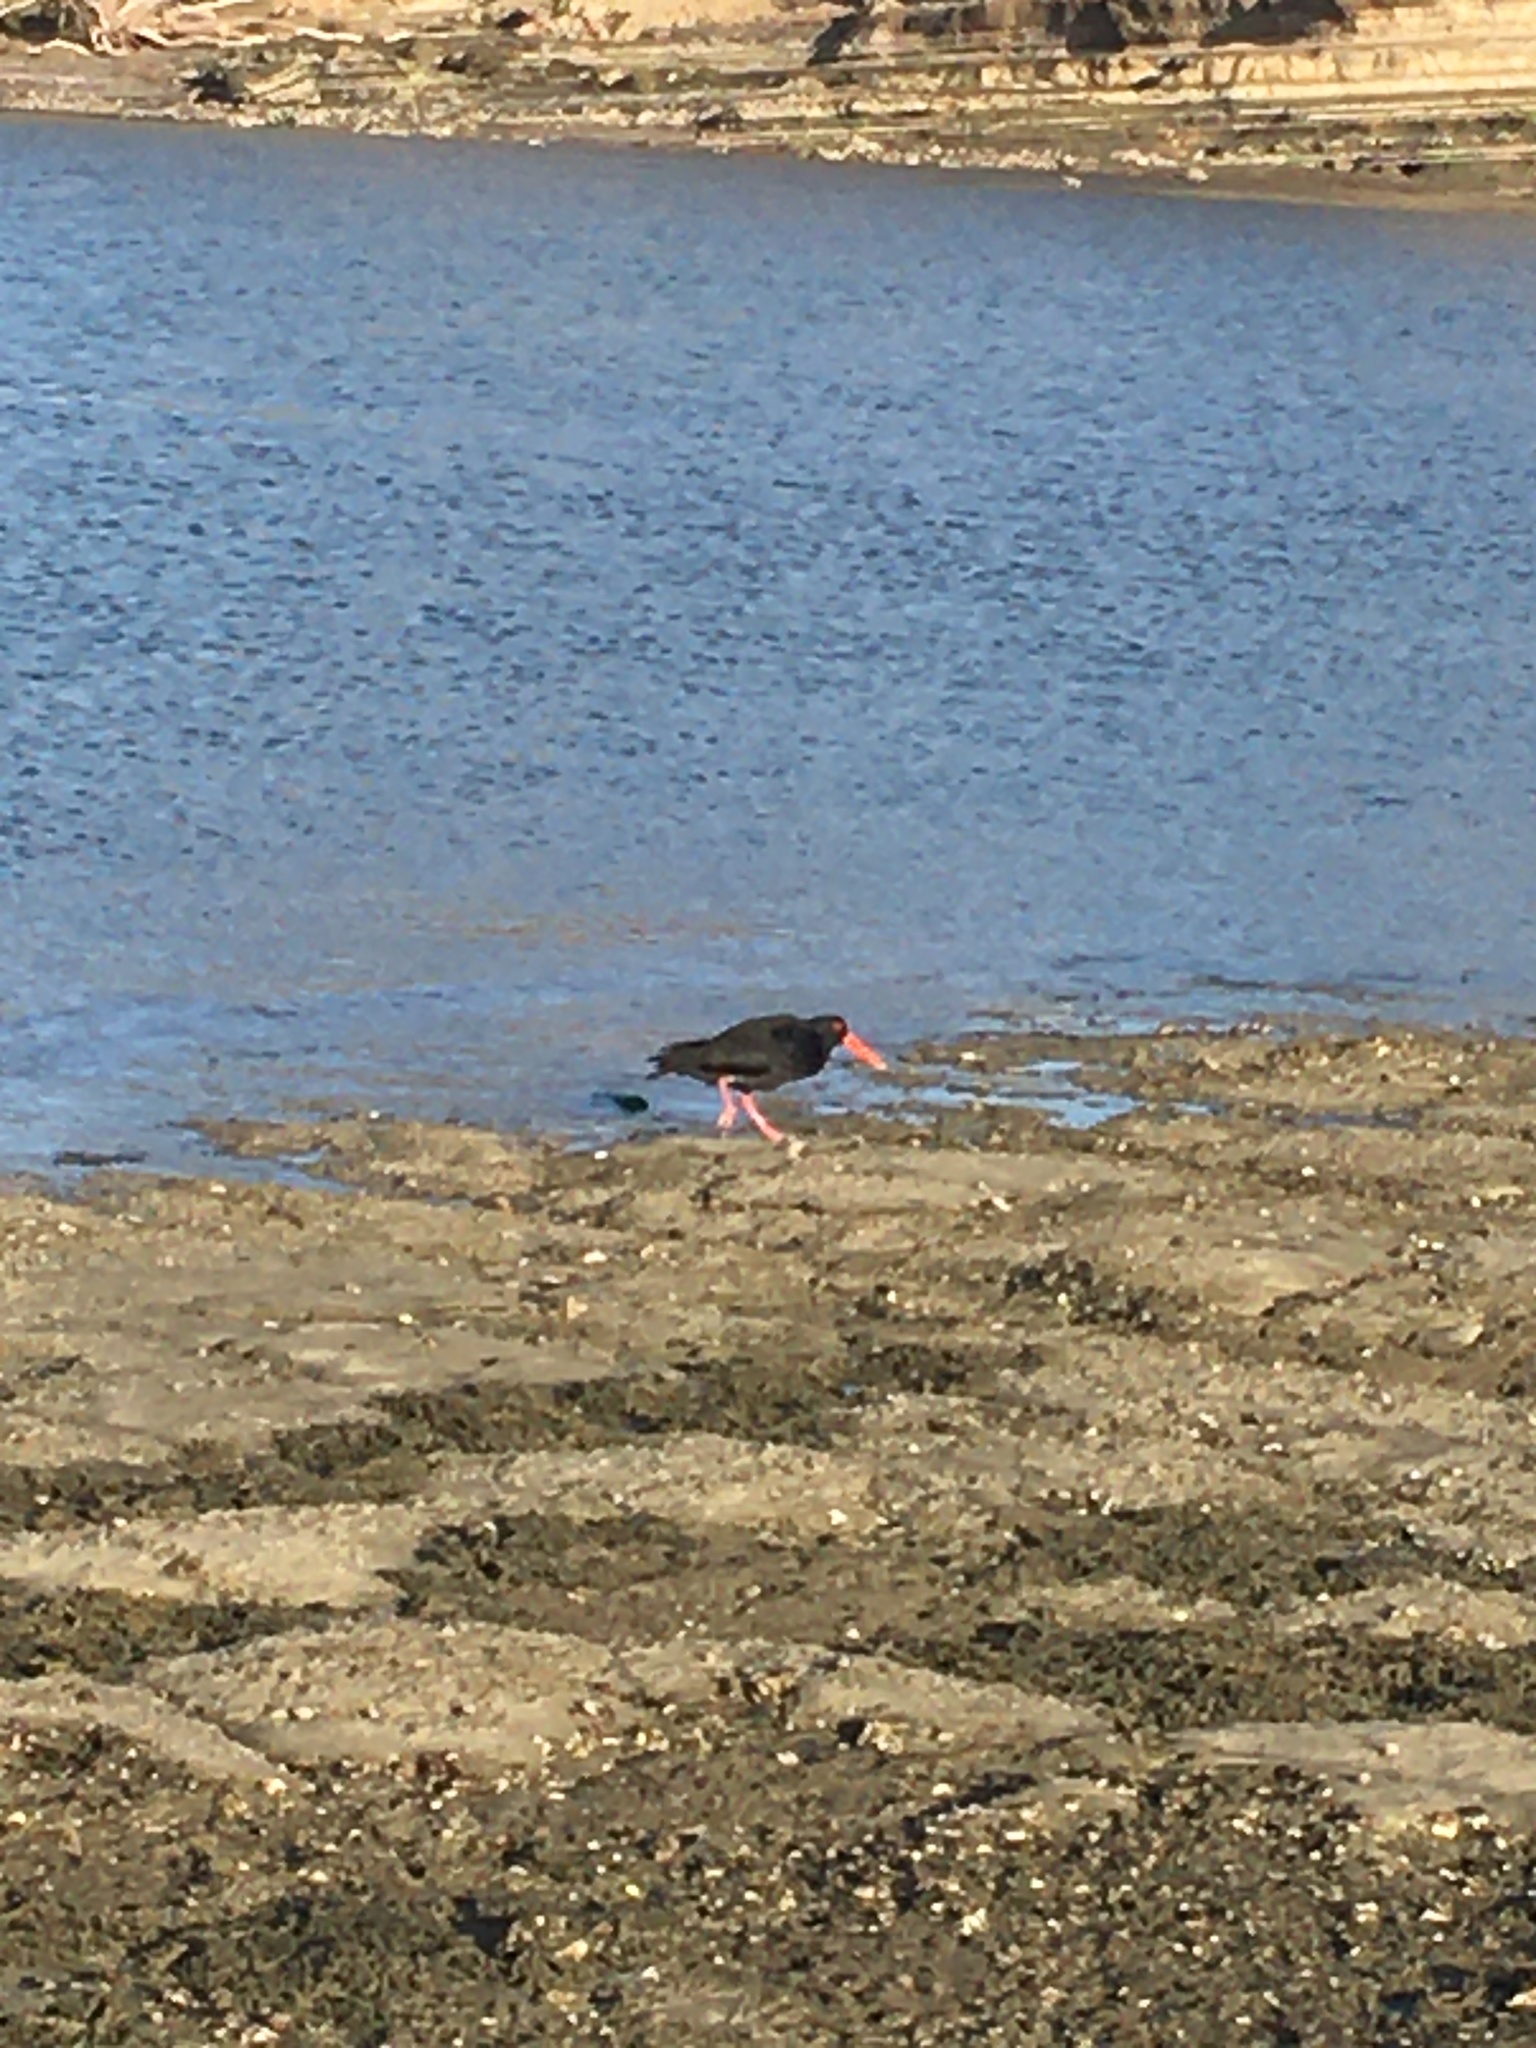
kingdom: Animalia
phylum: Chordata
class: Aves
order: Charadriiformes
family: Haematopodidae
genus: Haematopus
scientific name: Haematopus unicolor
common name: Variable oystercatcher
